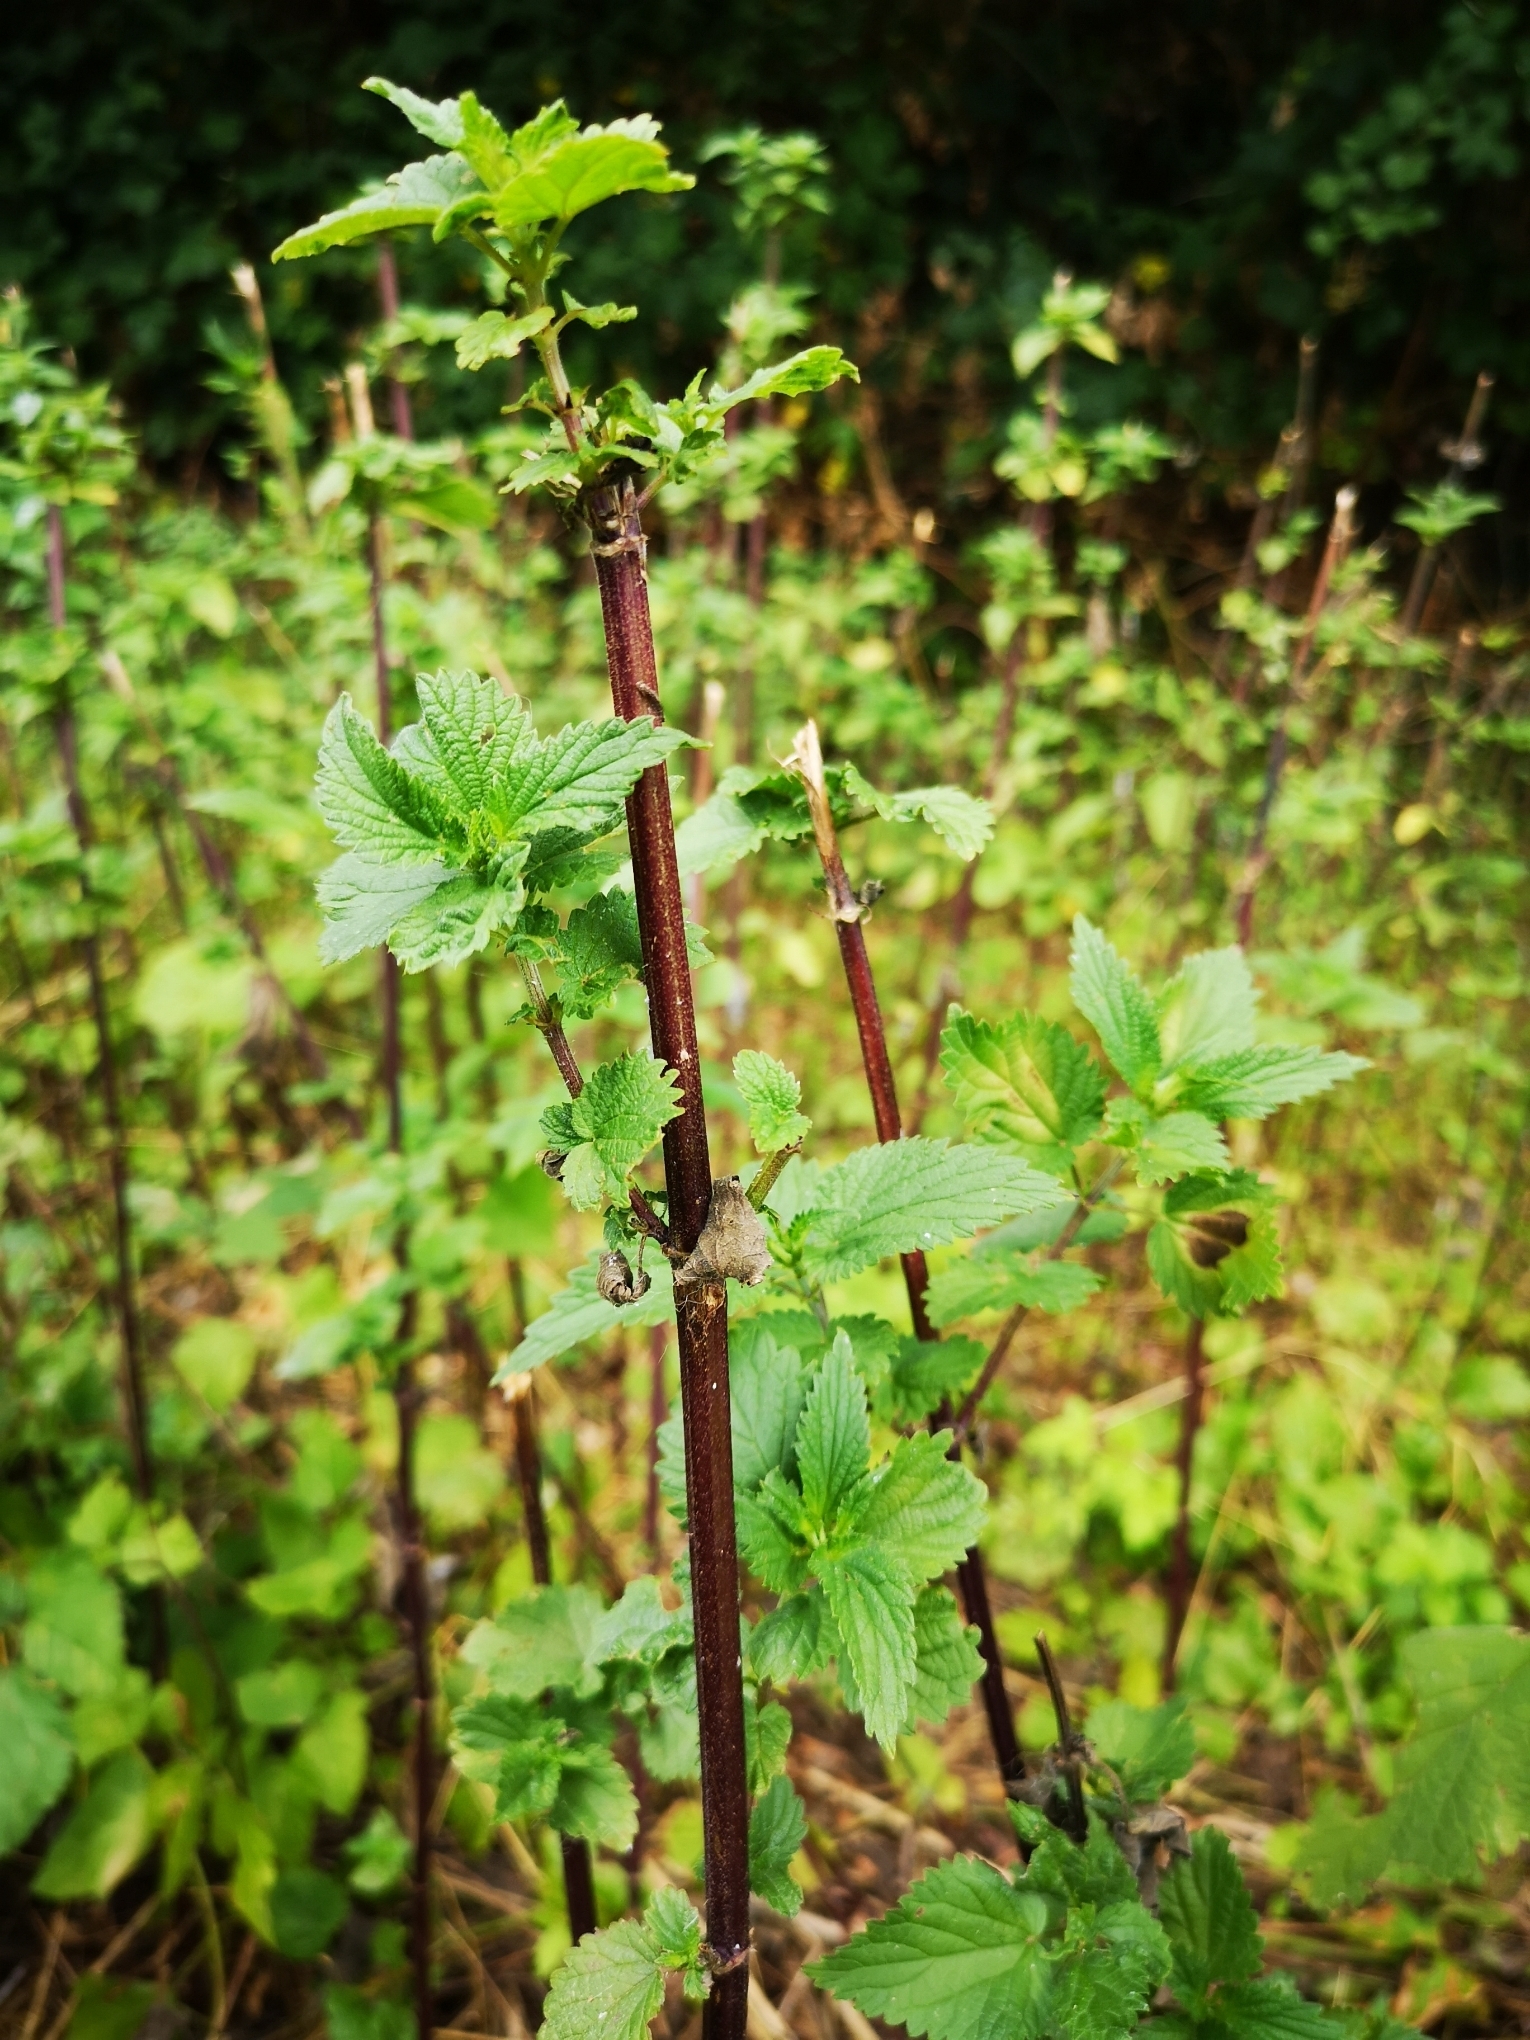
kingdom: Plantae
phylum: Tracheophyta
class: Magnoliopsida
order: Rosales
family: Urticaceae
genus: Urtica
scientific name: Urtica dioica
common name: Common nettle
